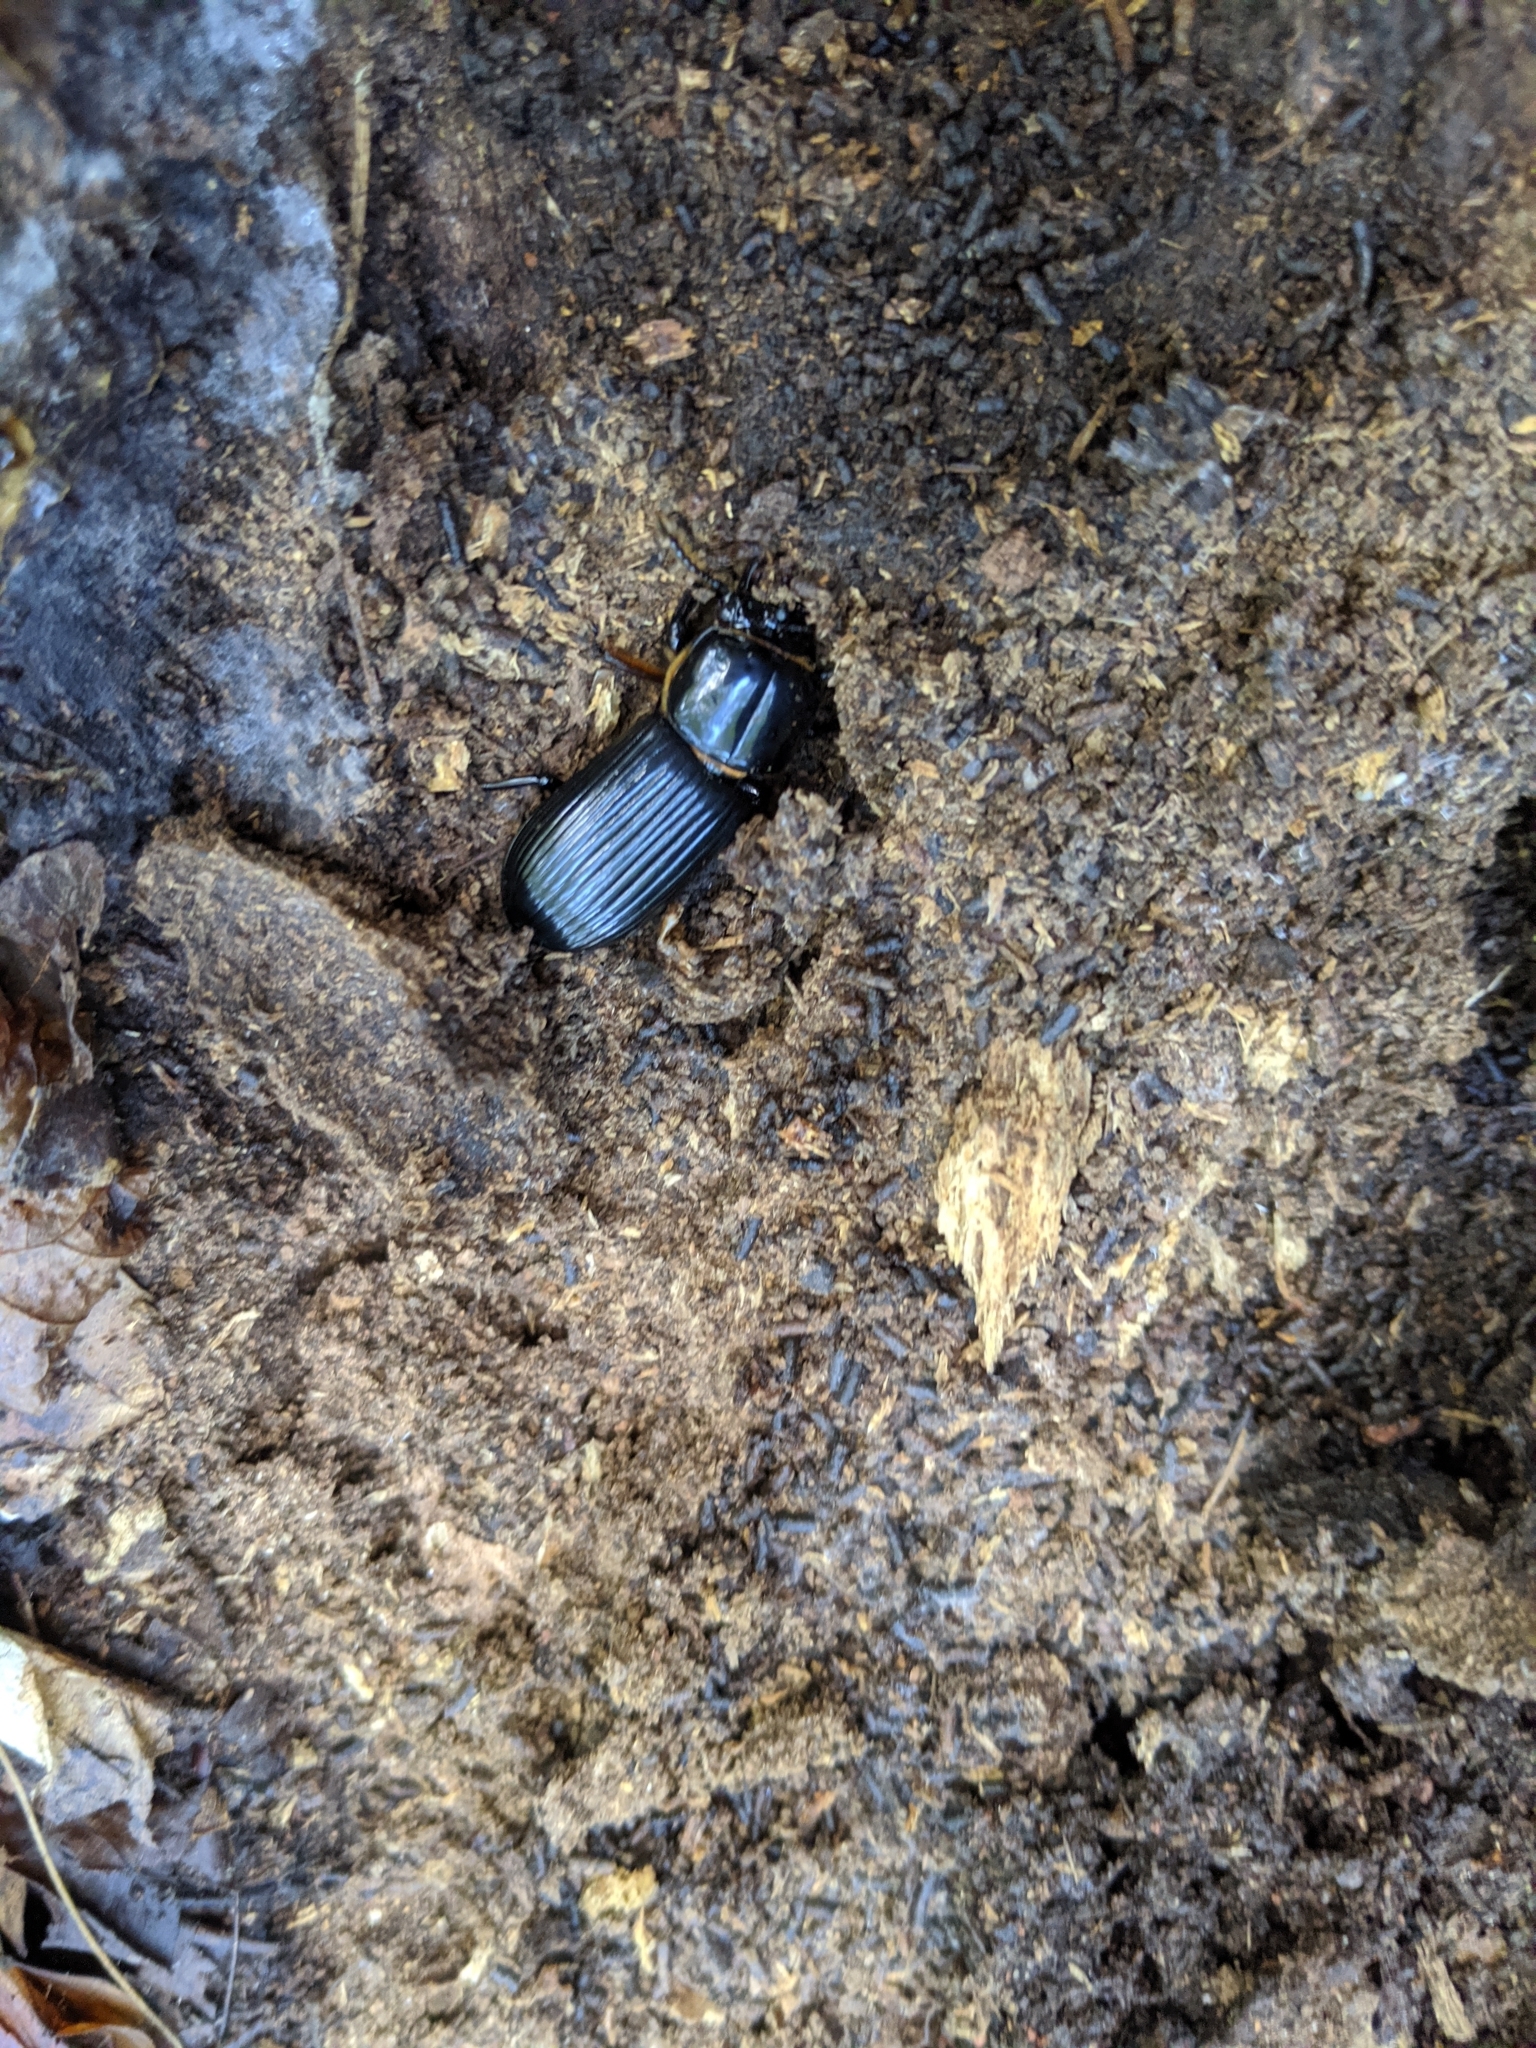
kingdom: Animalia
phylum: Arthropoda
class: Insecta
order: Coleoptera
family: Passalidae
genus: Odontotaenius
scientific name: Odontotaenius disjunctus
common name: Patent leather beetle
